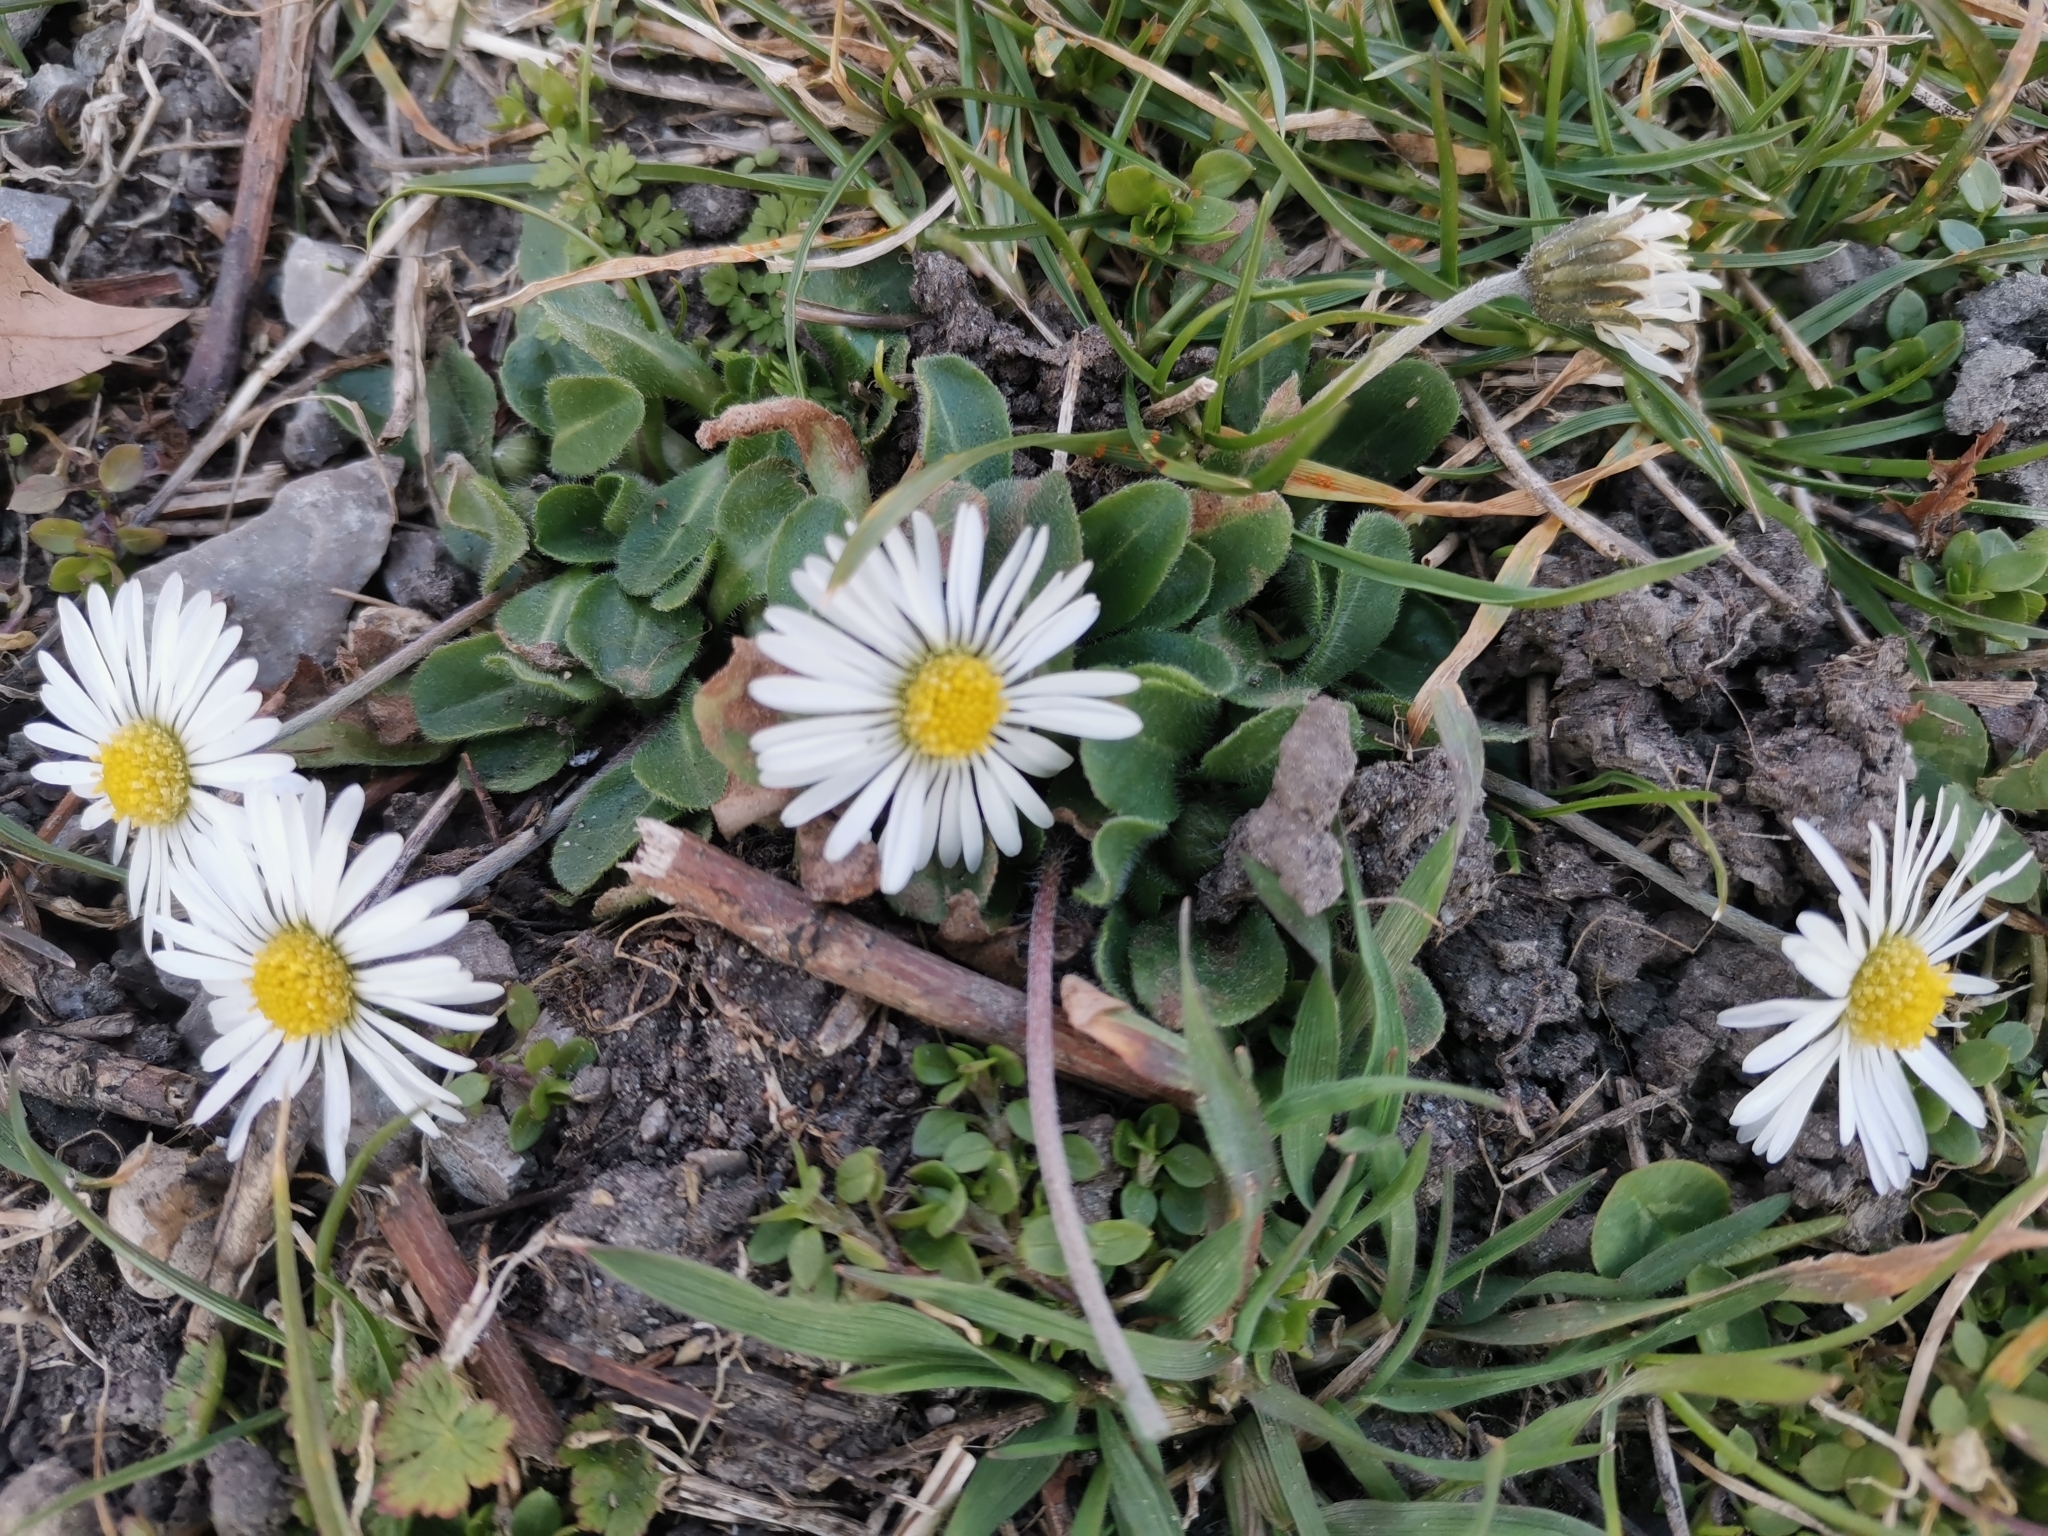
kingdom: Plantae
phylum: Tracheophyta
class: Magnoliopsida
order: Asterales
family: Asteraceae
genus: Bellis
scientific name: Bellis perennis
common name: Lawndaisy
